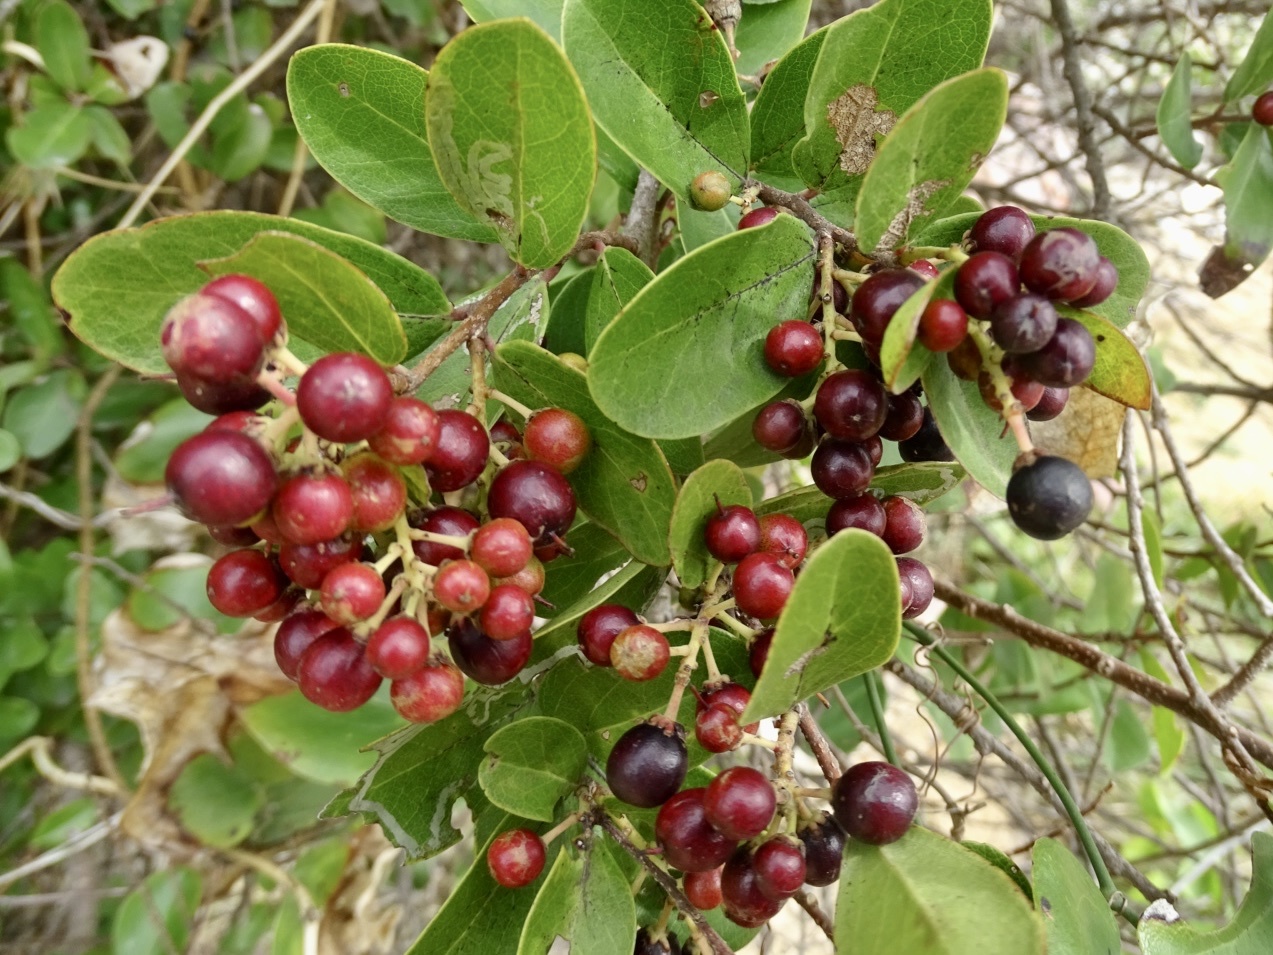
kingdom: Plantae
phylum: Tracheophyta
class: Magnoliopsida
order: Malpighiales
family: Salicaceae
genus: Scolopia
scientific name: Scolopia chinensis
